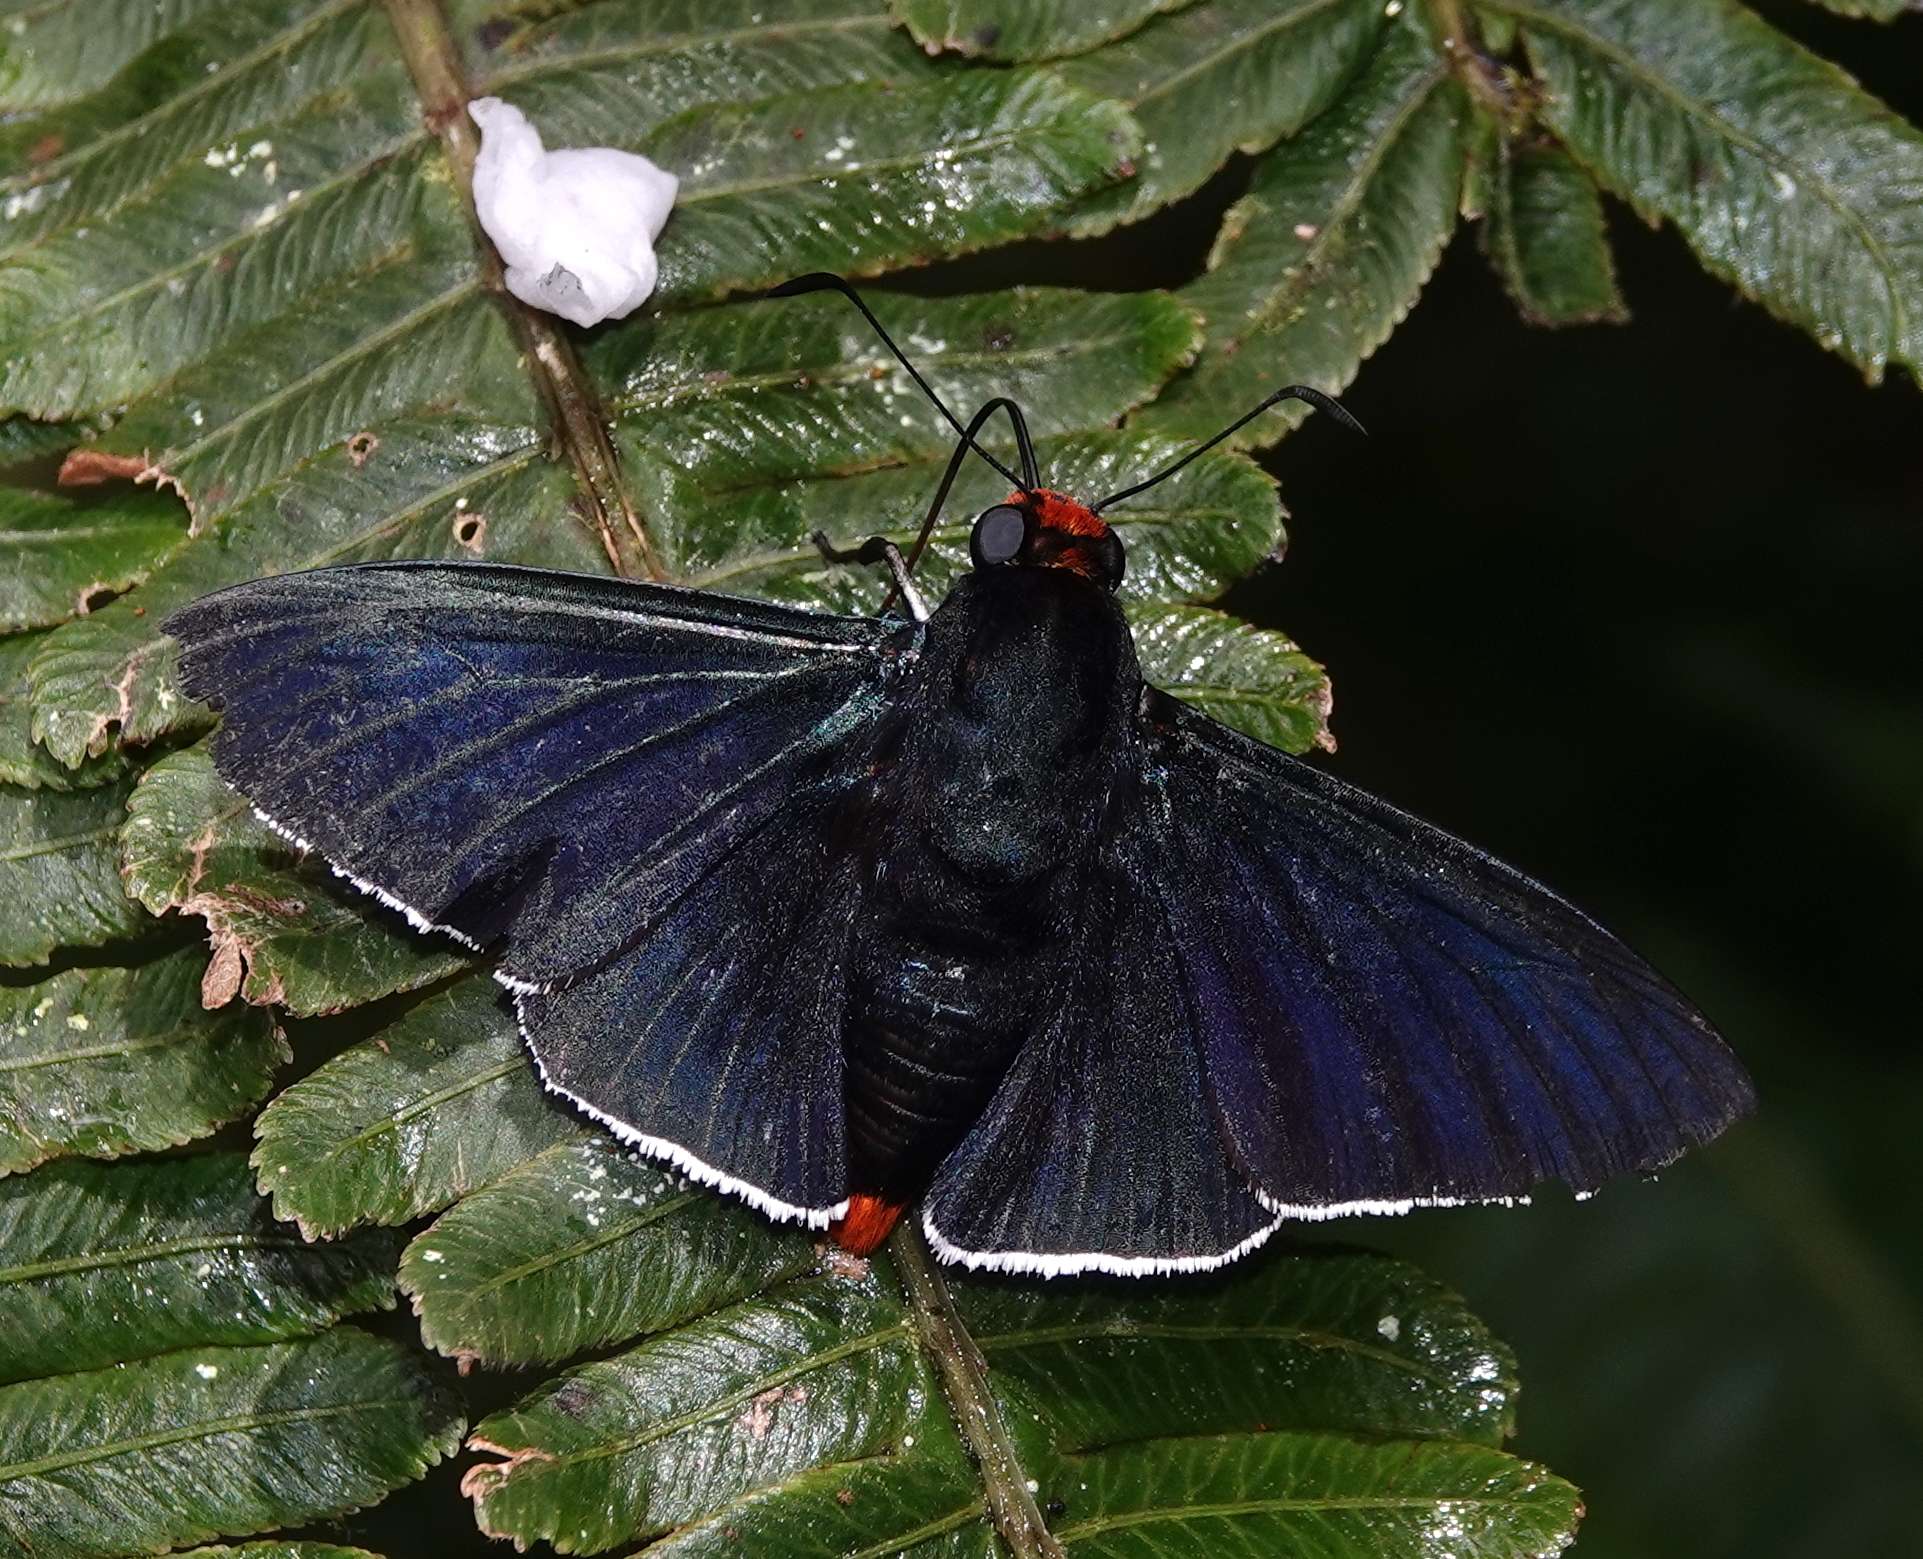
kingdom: Animalia
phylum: Arthropoda
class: Insecta
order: Lepidoptera
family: Hesperiidae
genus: Pyrrhopyge
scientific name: Pyrrhopyge phidias
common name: Original firetip
